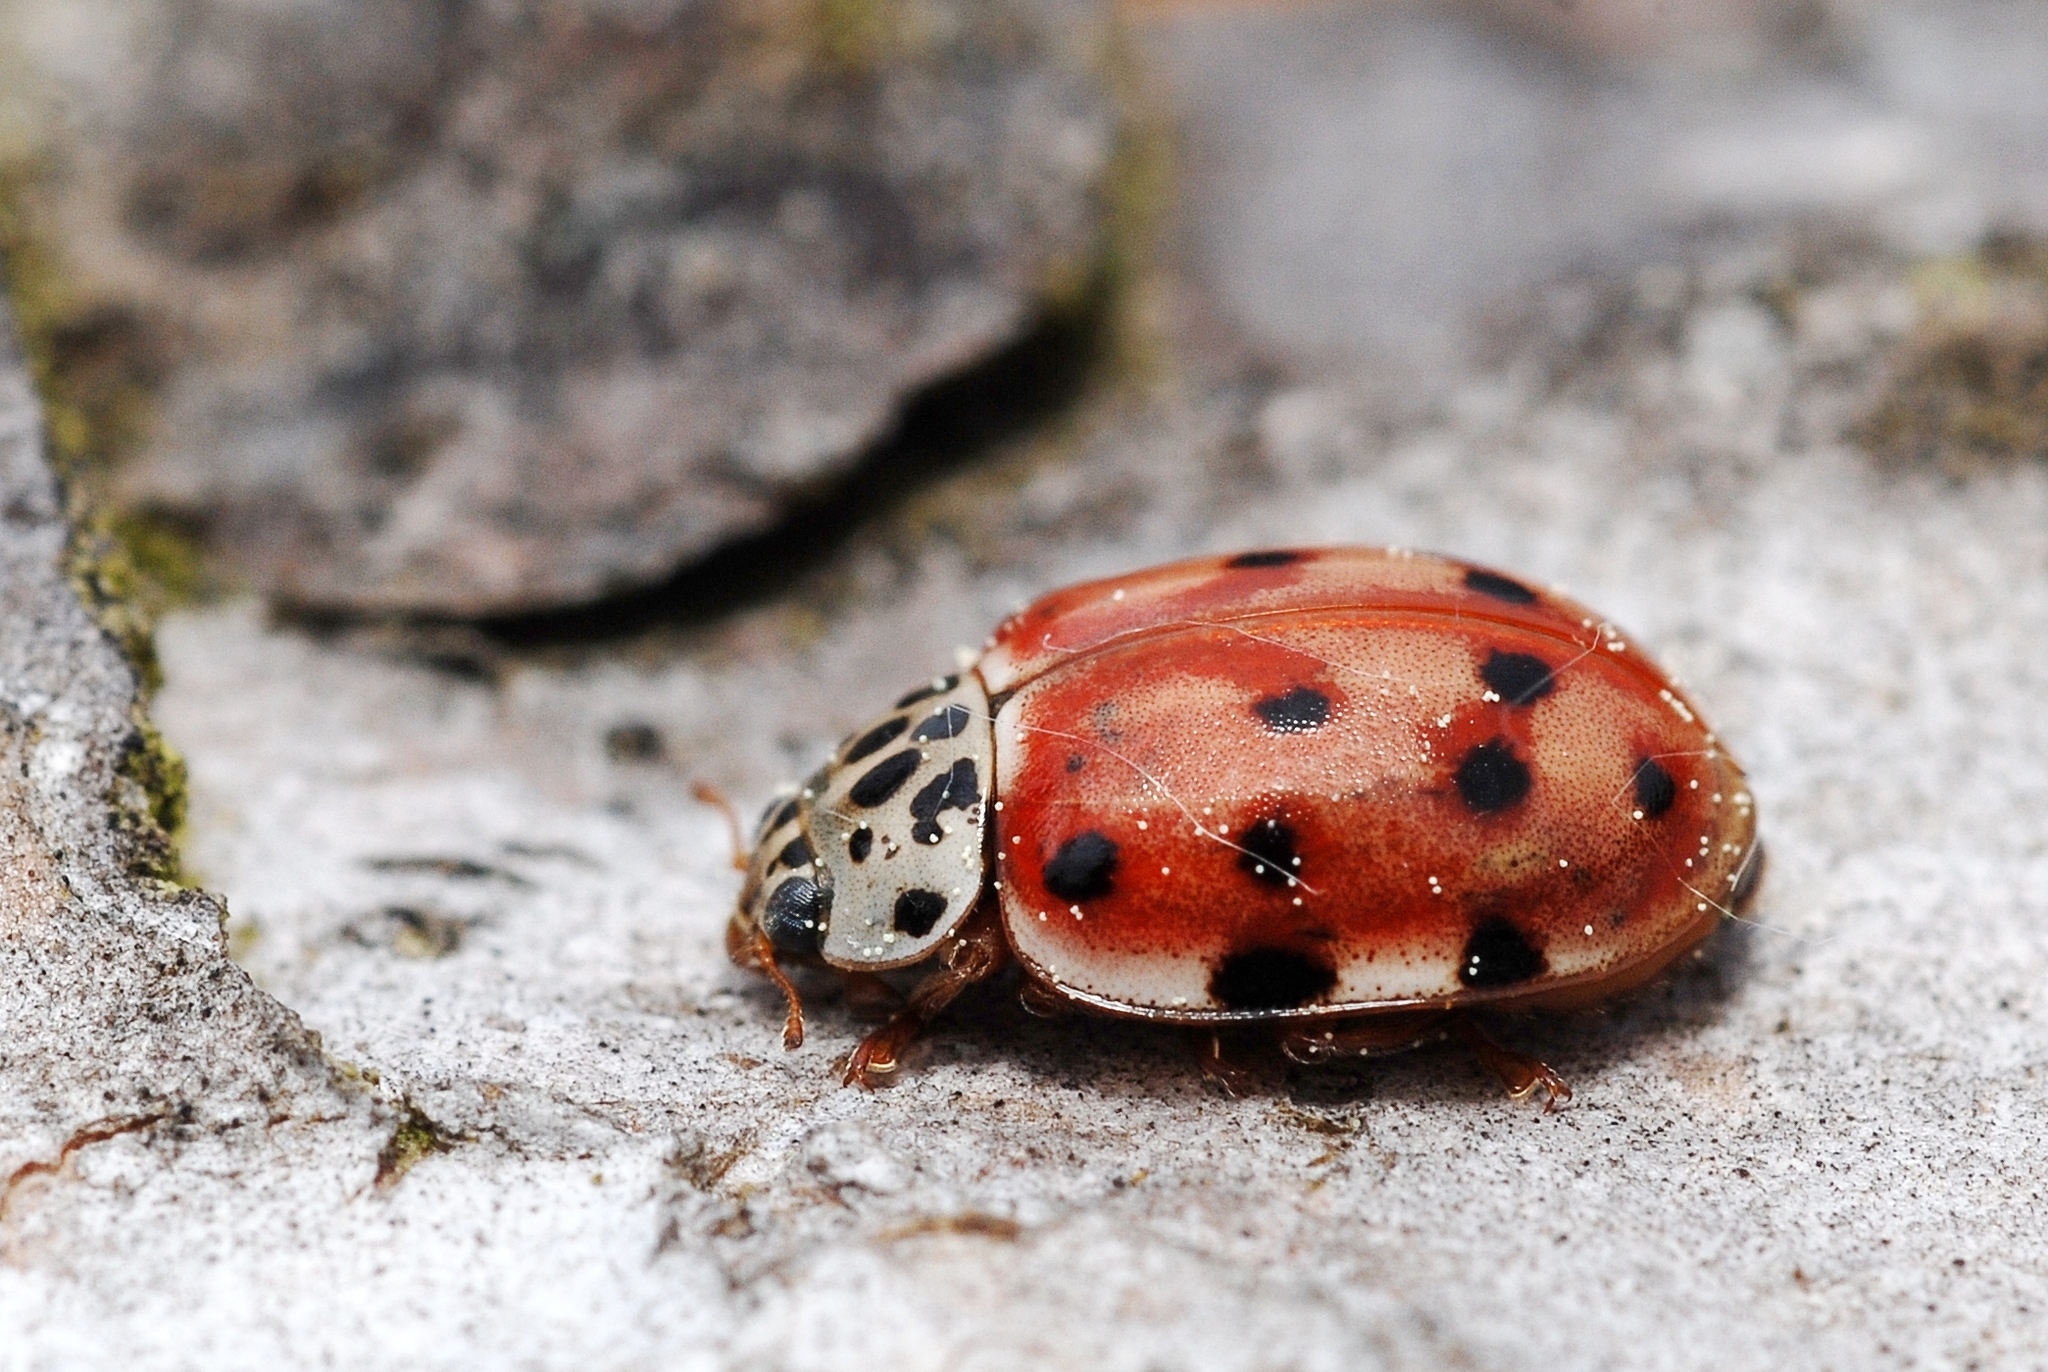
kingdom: Animalia
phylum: Arthropoda
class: Insecta
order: Coleoptera
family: Coccinellidae
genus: Harmonia
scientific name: Harmonia quadripunctata
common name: Cream-streaked ladybird
